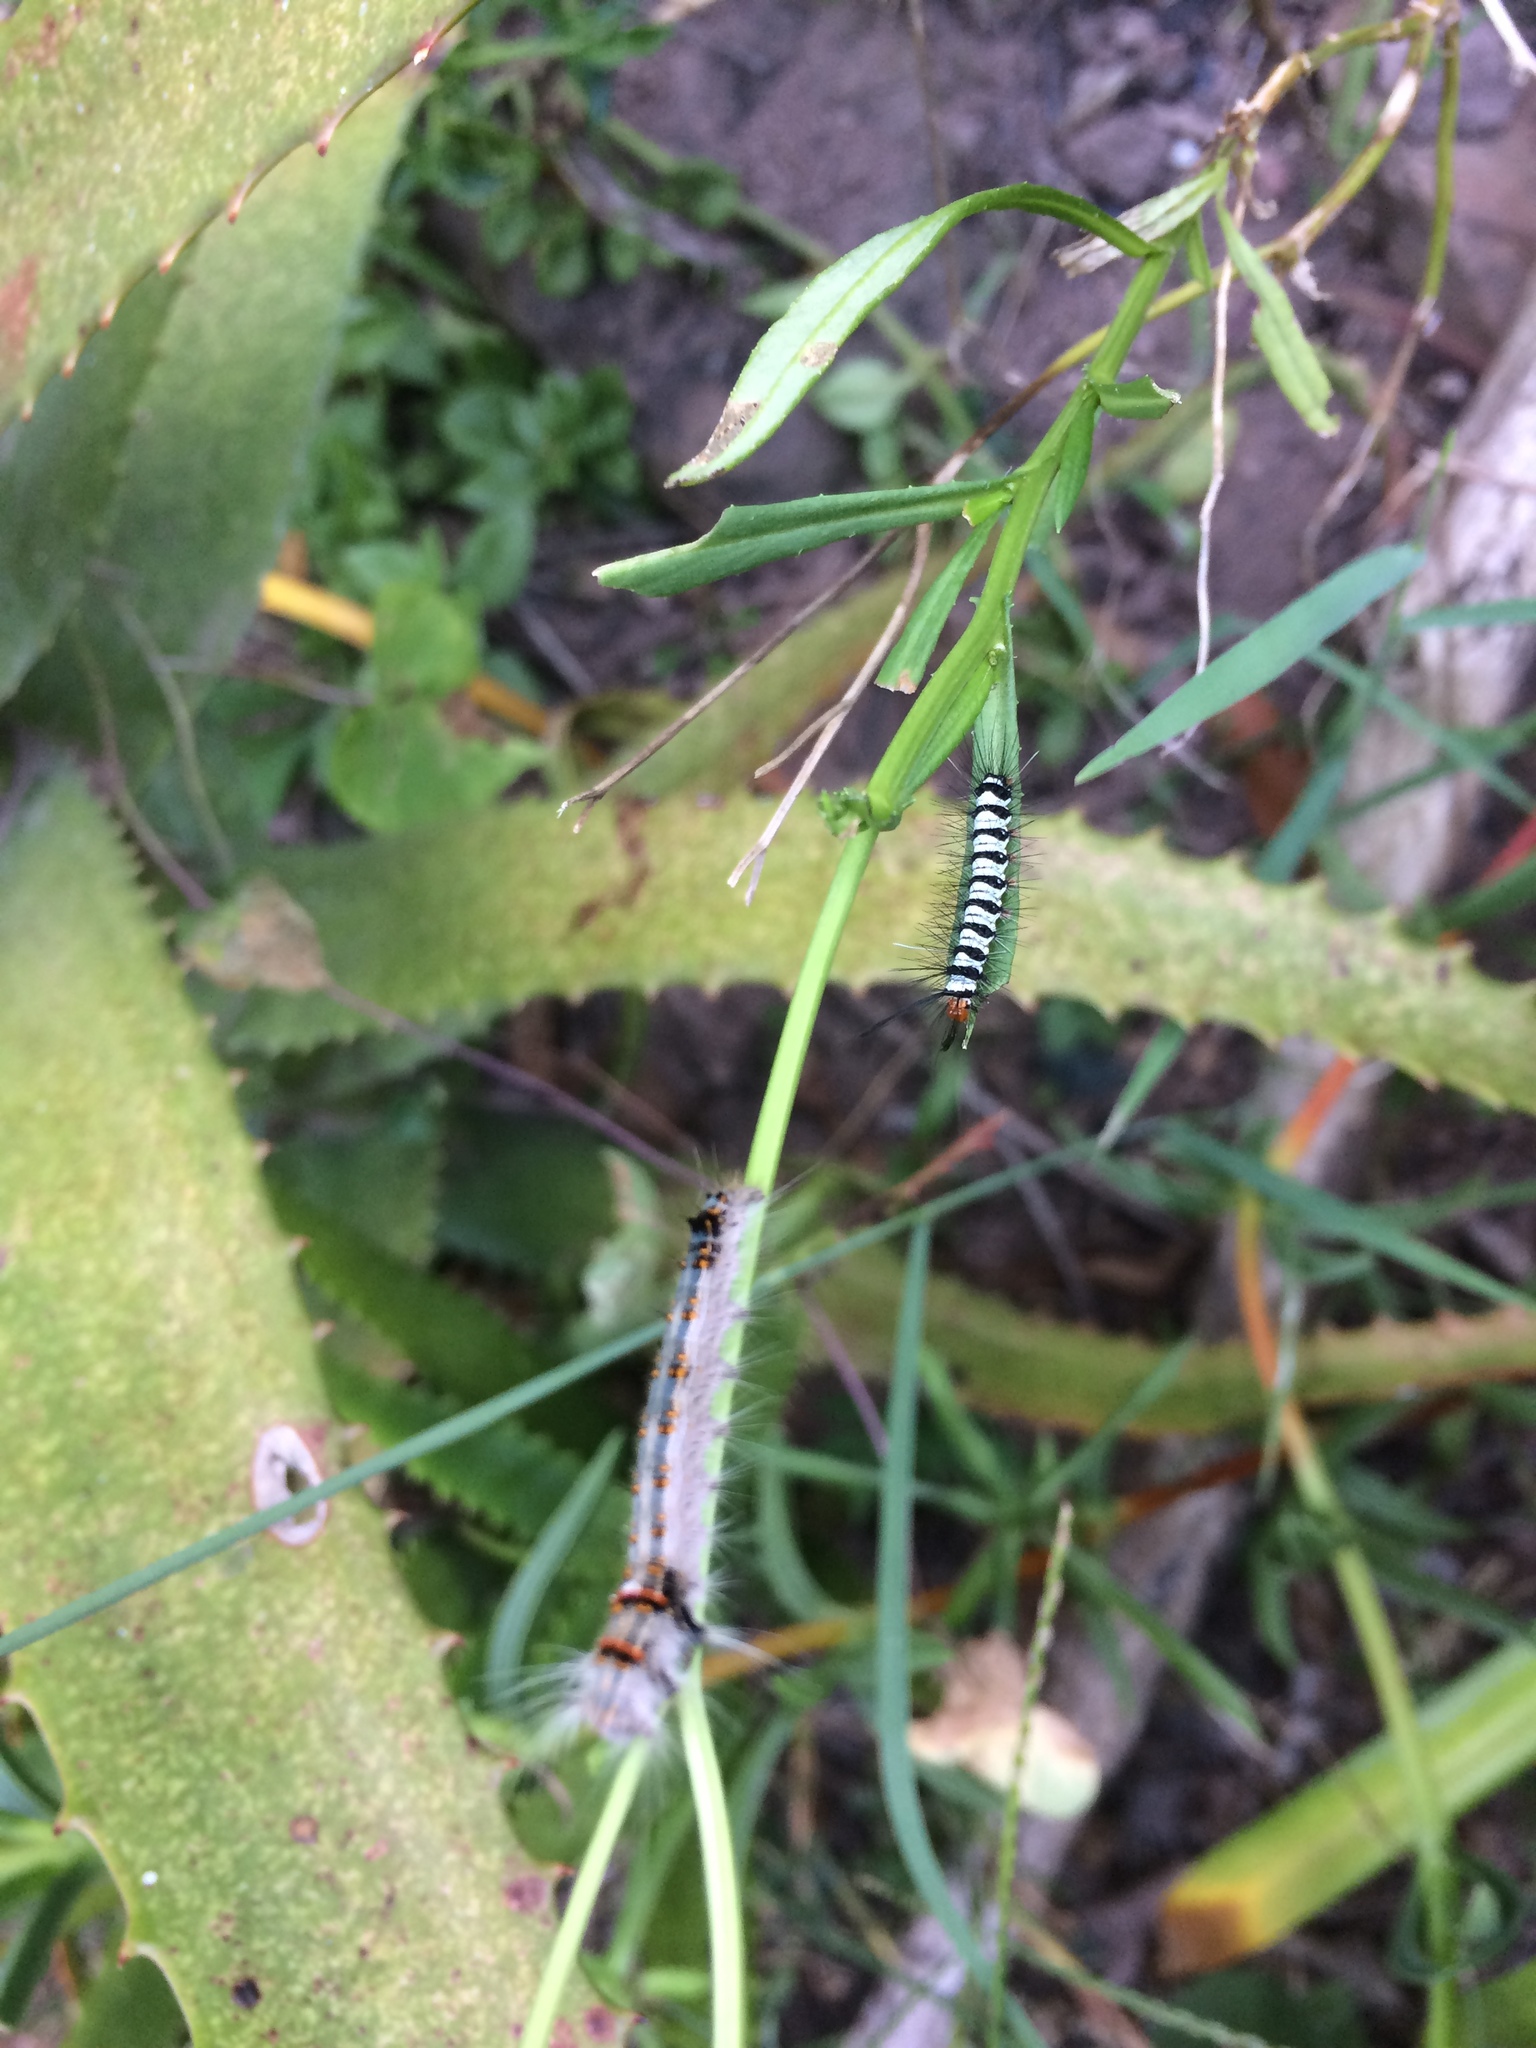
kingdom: Animalia
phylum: Arthropoda
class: Insecta
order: Lepidoptera
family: Erebidae
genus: Nyctemera
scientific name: Nyctemera
